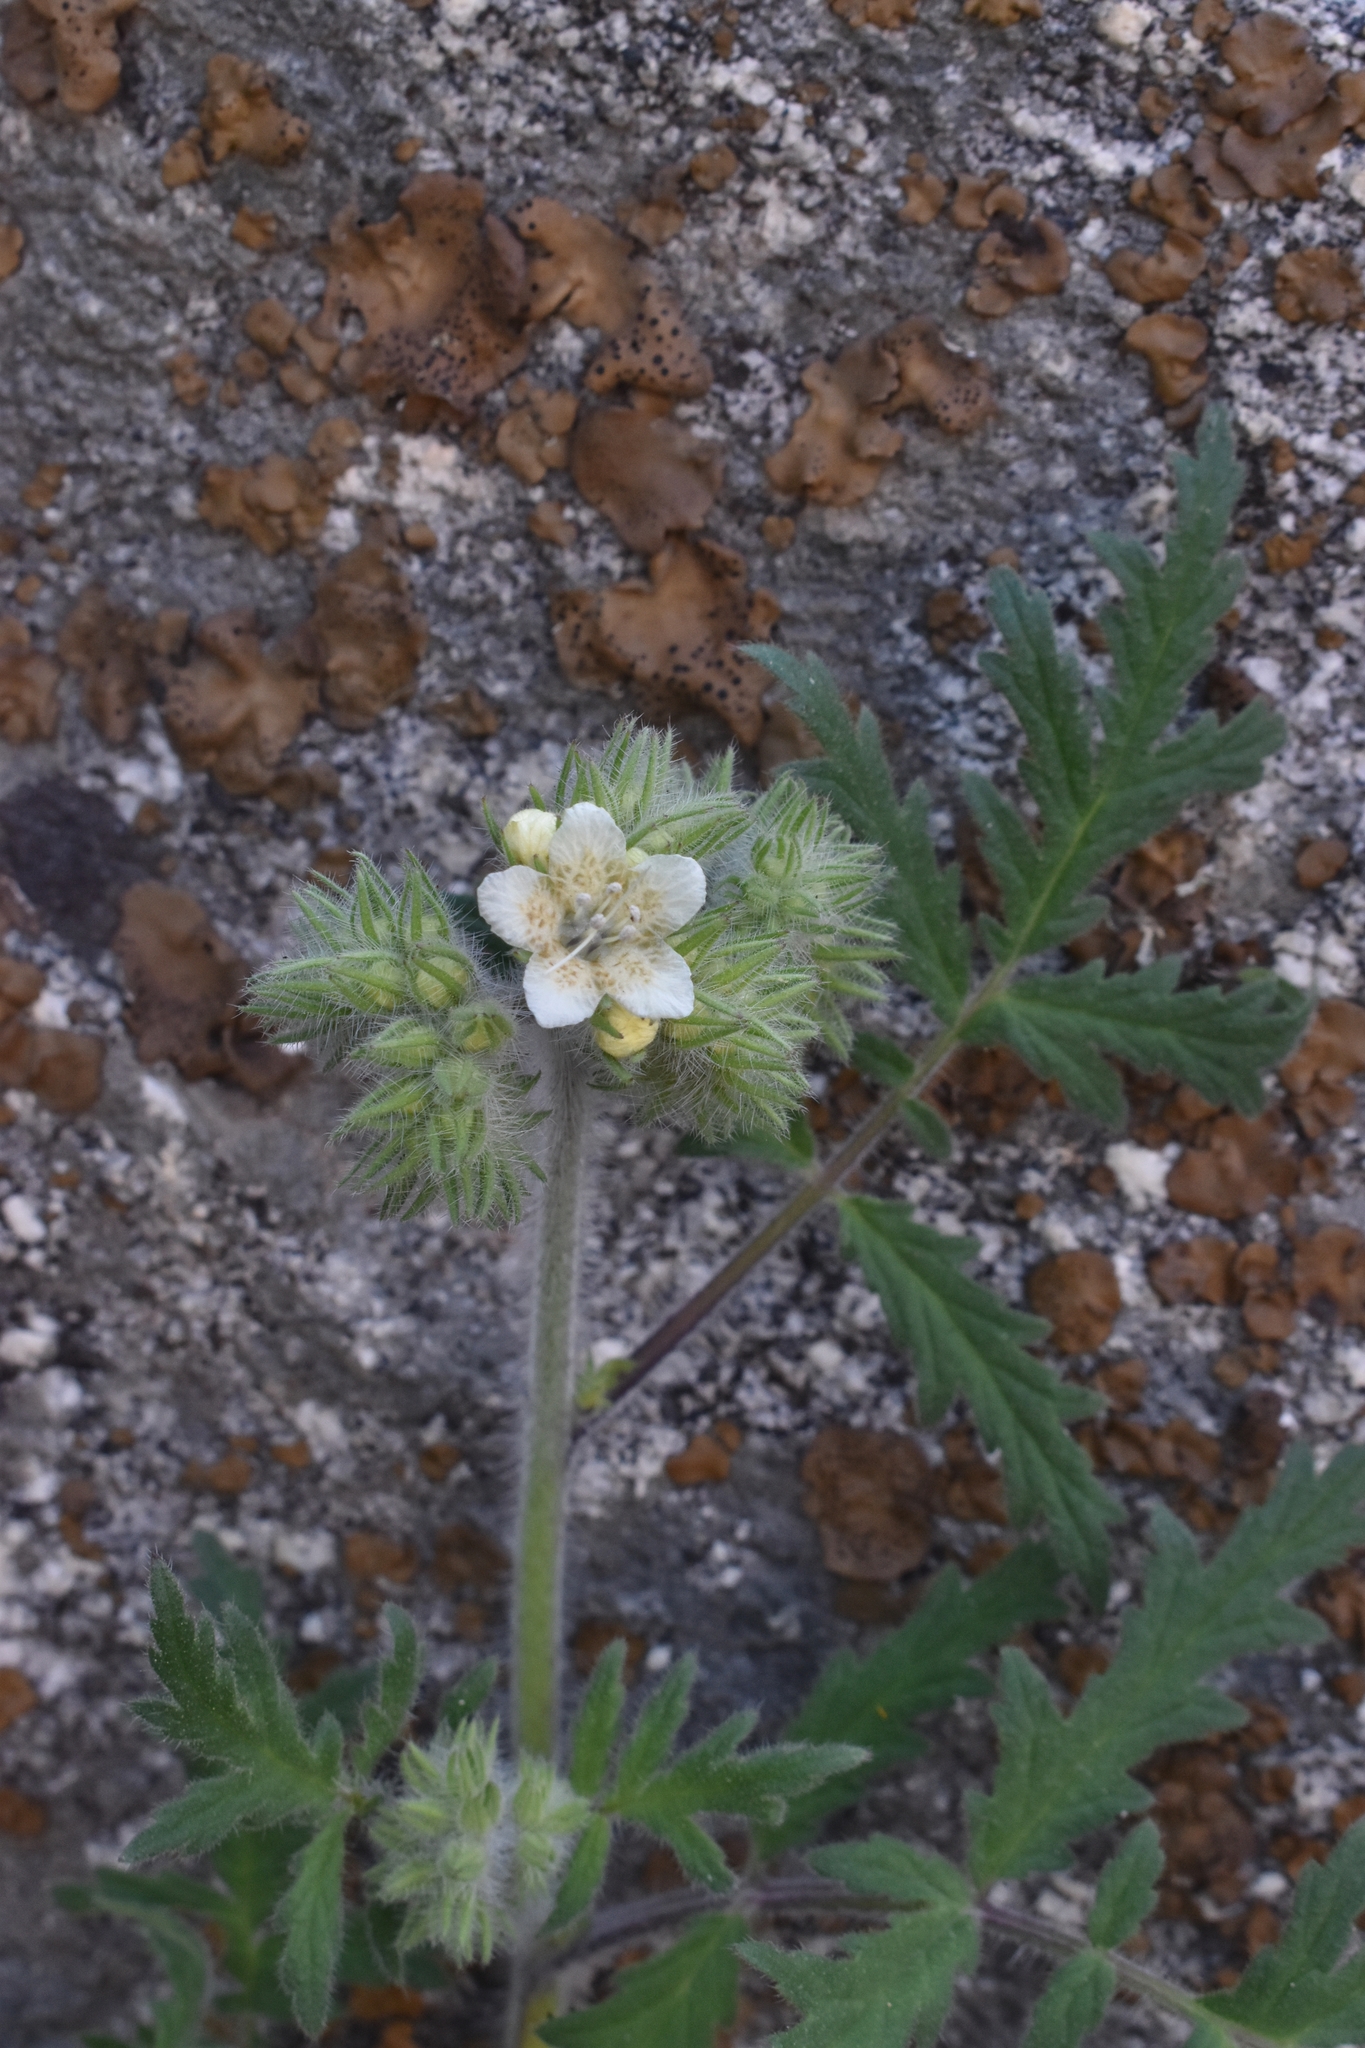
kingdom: Plantae
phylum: Tracheophyta
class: Magnoliopsida
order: Boraginales
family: Hydrophyllaceae
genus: Phacelia
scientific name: Phacelia cicutaria
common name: Caterpillar phacelia
